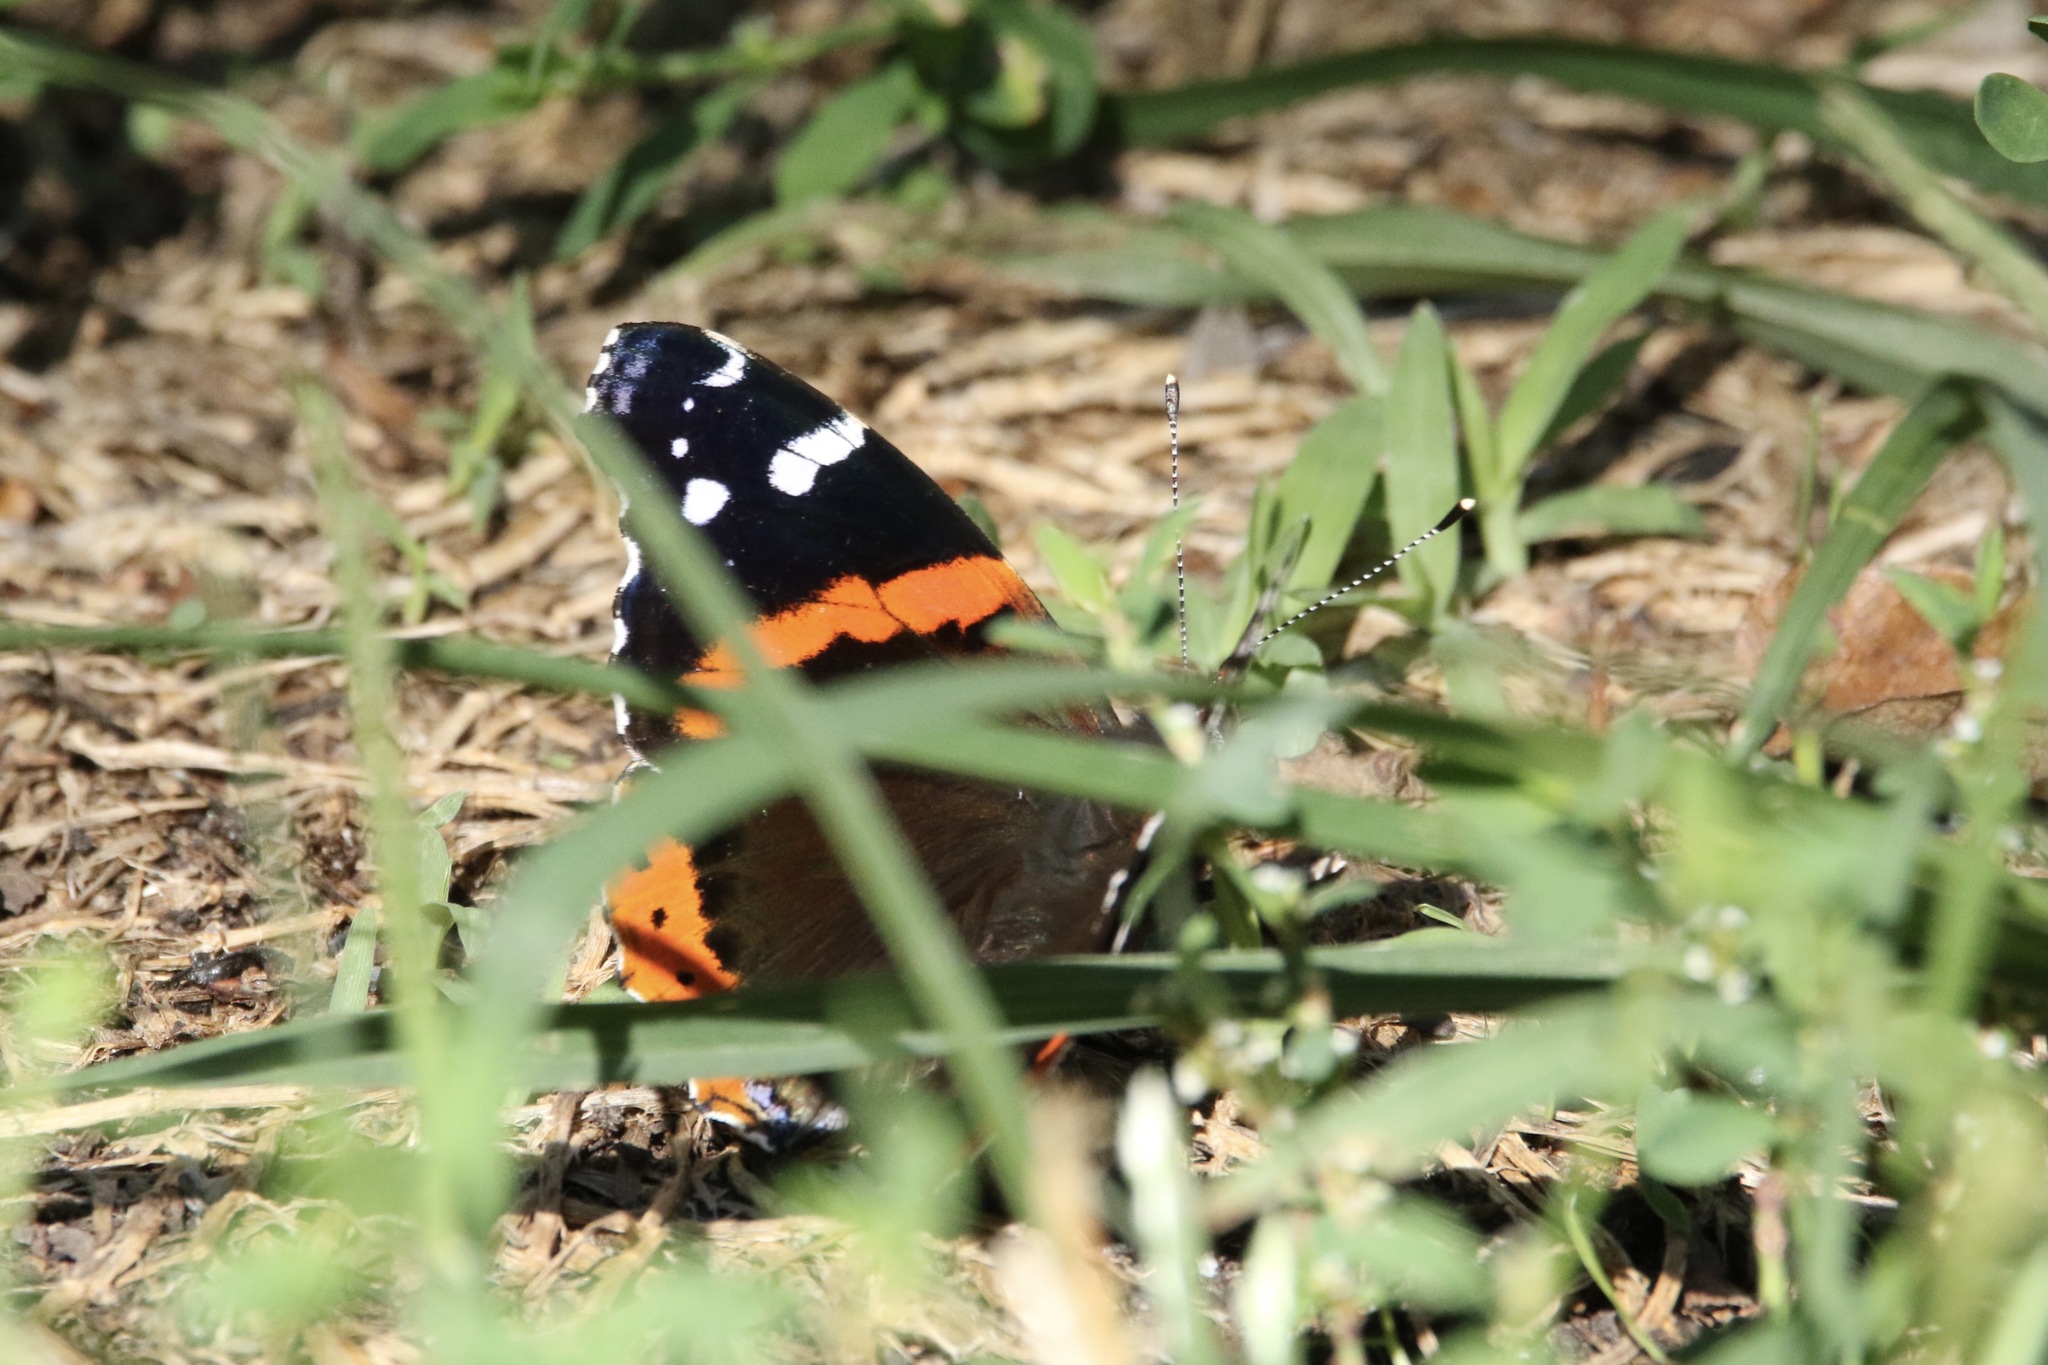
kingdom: Animalia
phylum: Arthropoda
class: Insecta
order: Lepidoptera
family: Nymphalidae
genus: Vanessa
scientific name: Vanessa atalanta
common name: Red admiral
